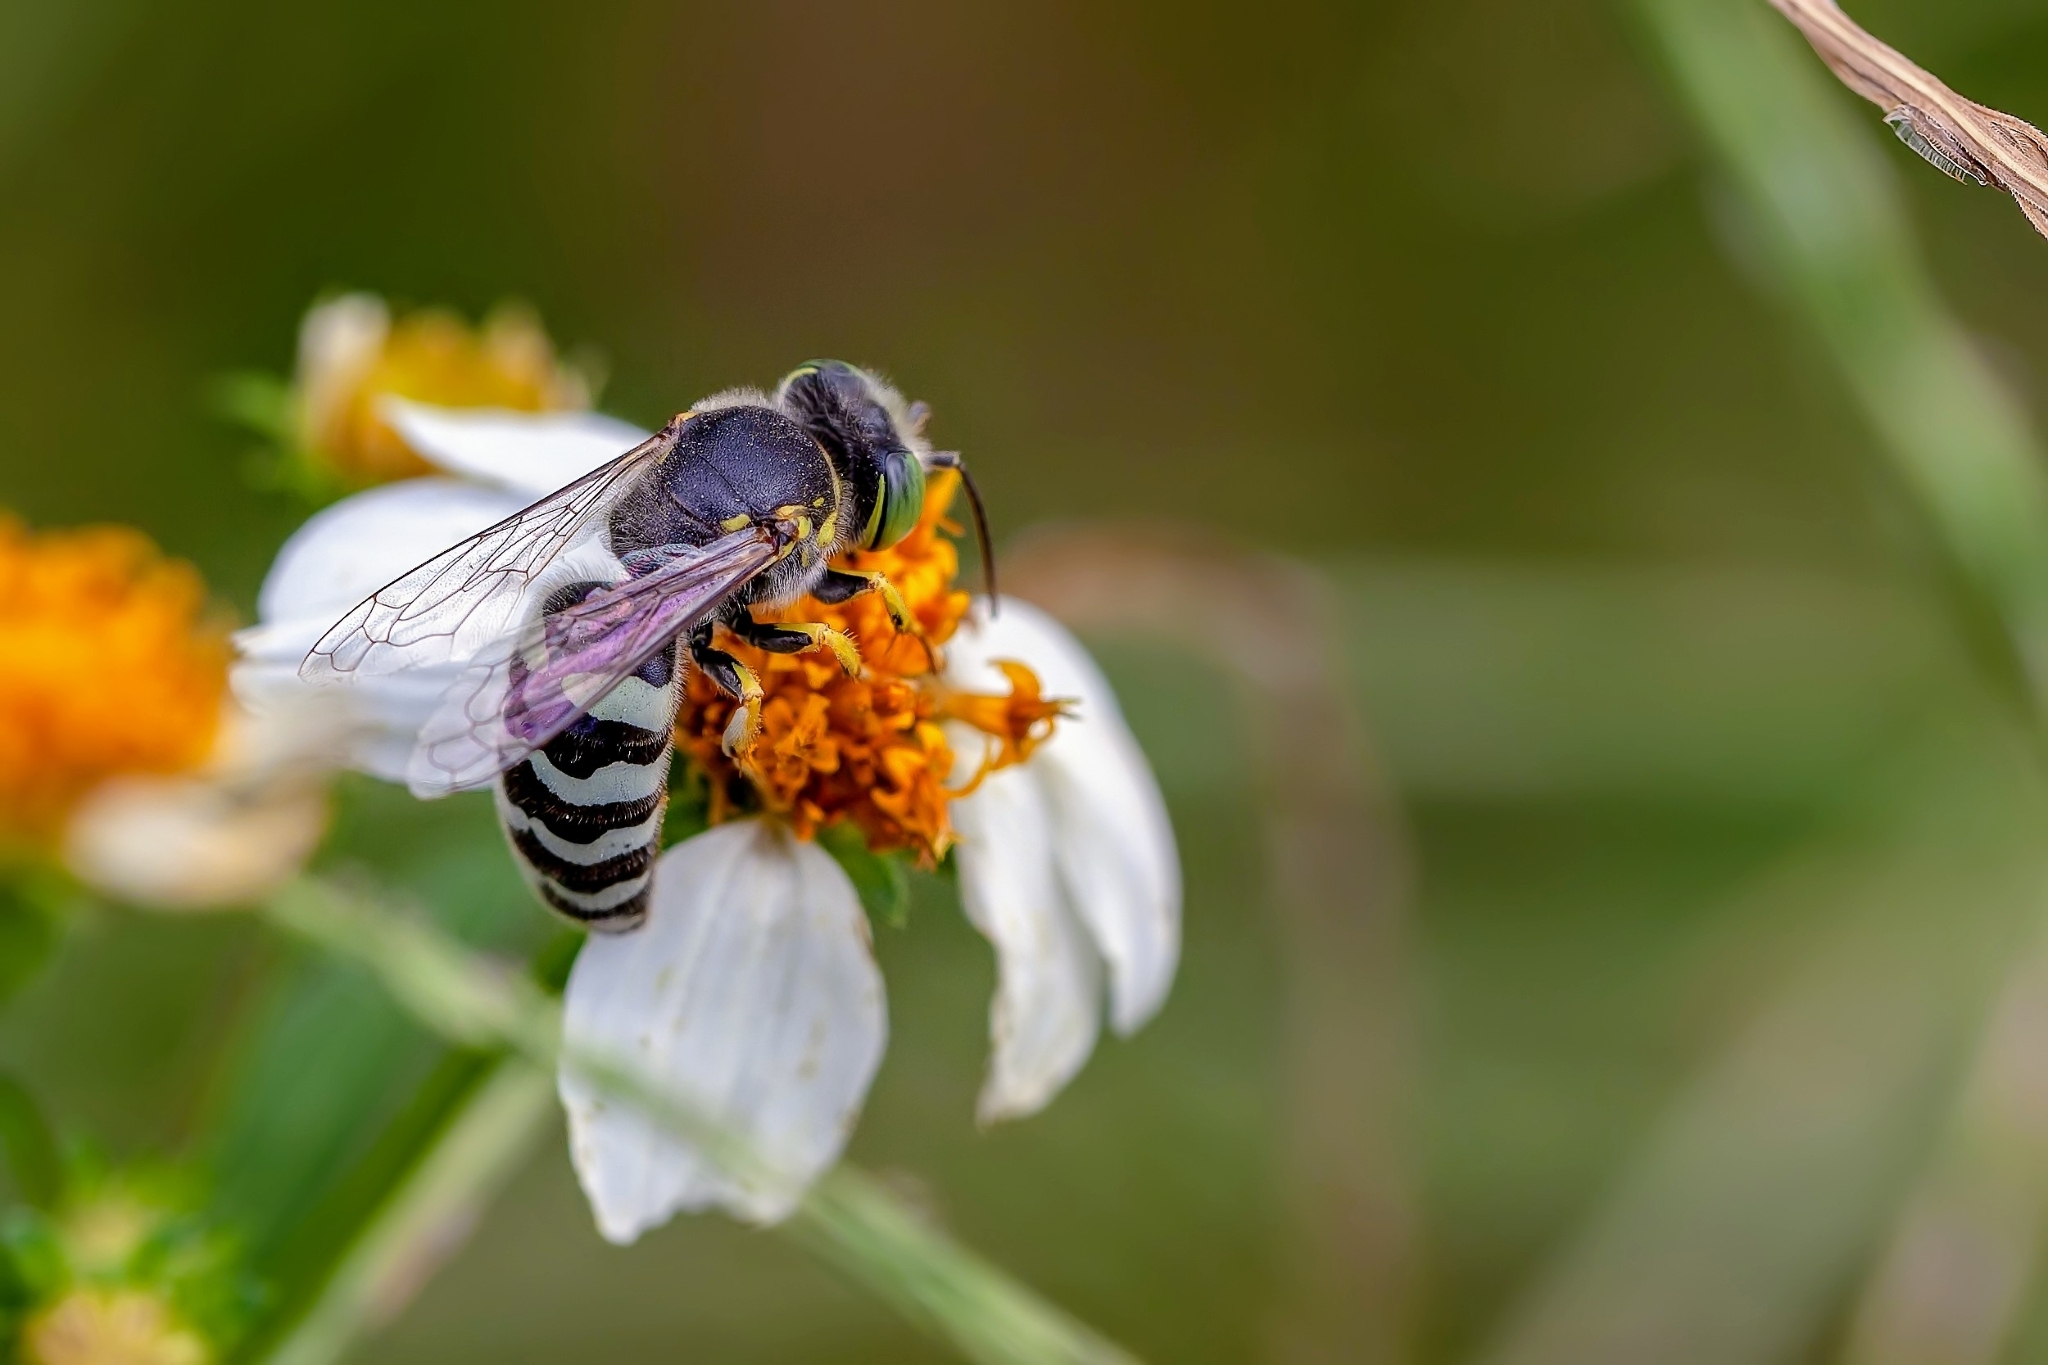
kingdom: Animalia
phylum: Arthropoda
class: Insecta
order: Hymenoptera
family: Crabronidae
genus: Bembix
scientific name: Bembix americana
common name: American sand wasp
